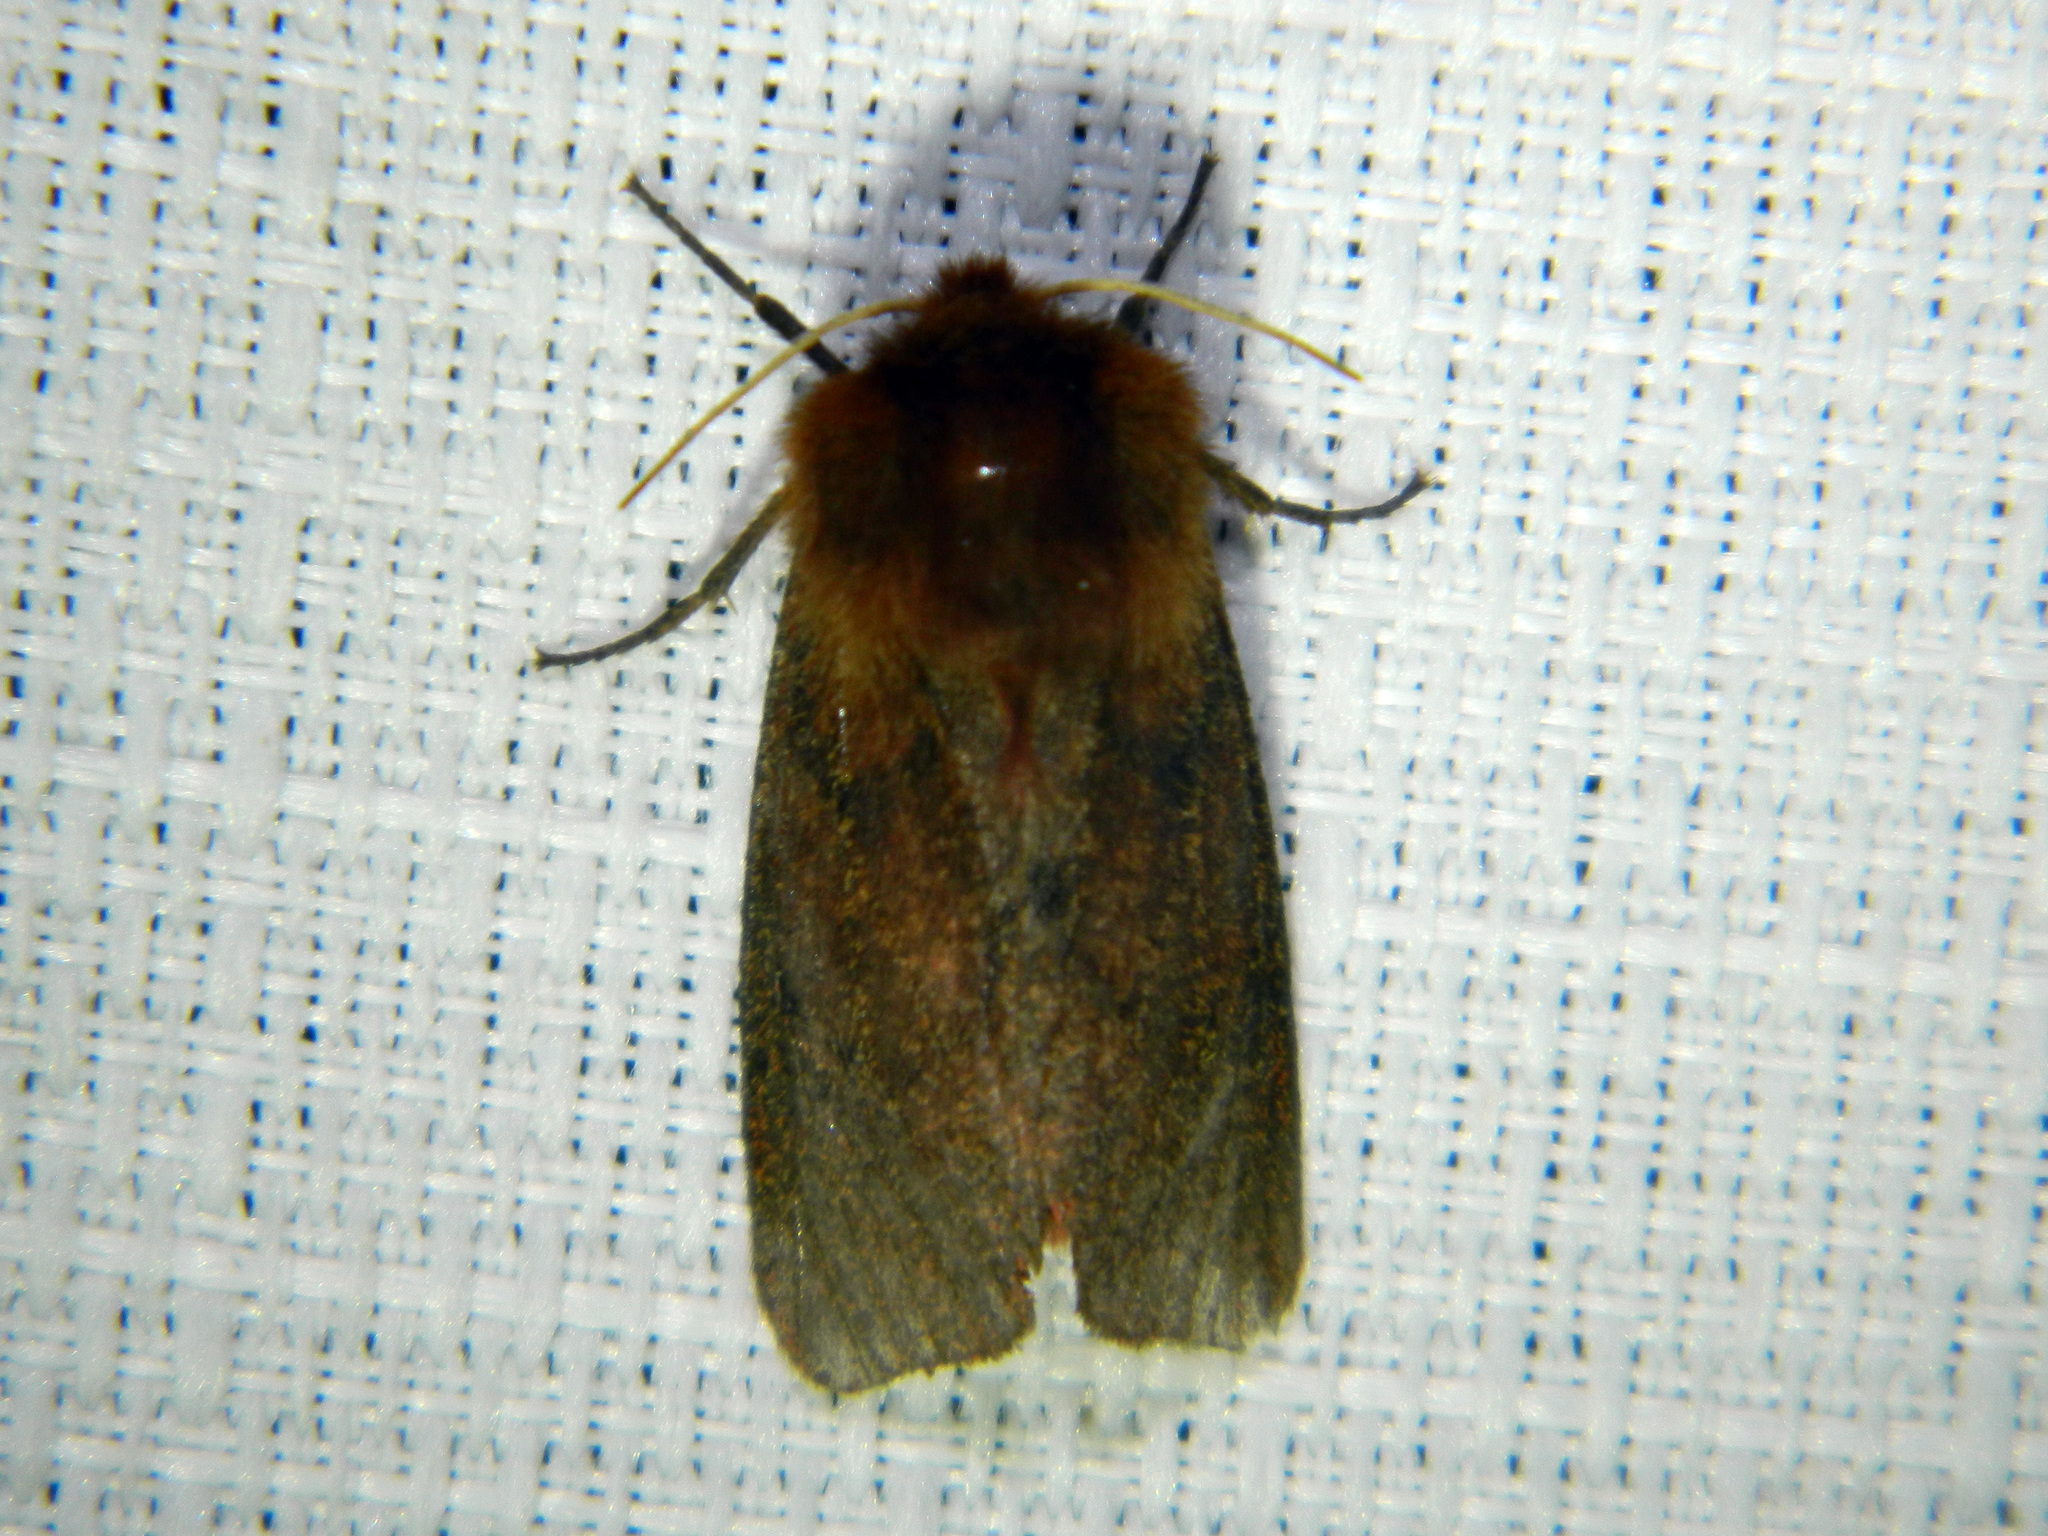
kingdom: Animalia
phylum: Arthropoda
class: Insecta
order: Lepidoptera
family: Erebidae
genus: Phragmatobia
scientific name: Phragmatobia assimilans
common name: Large ruby tiger moth
